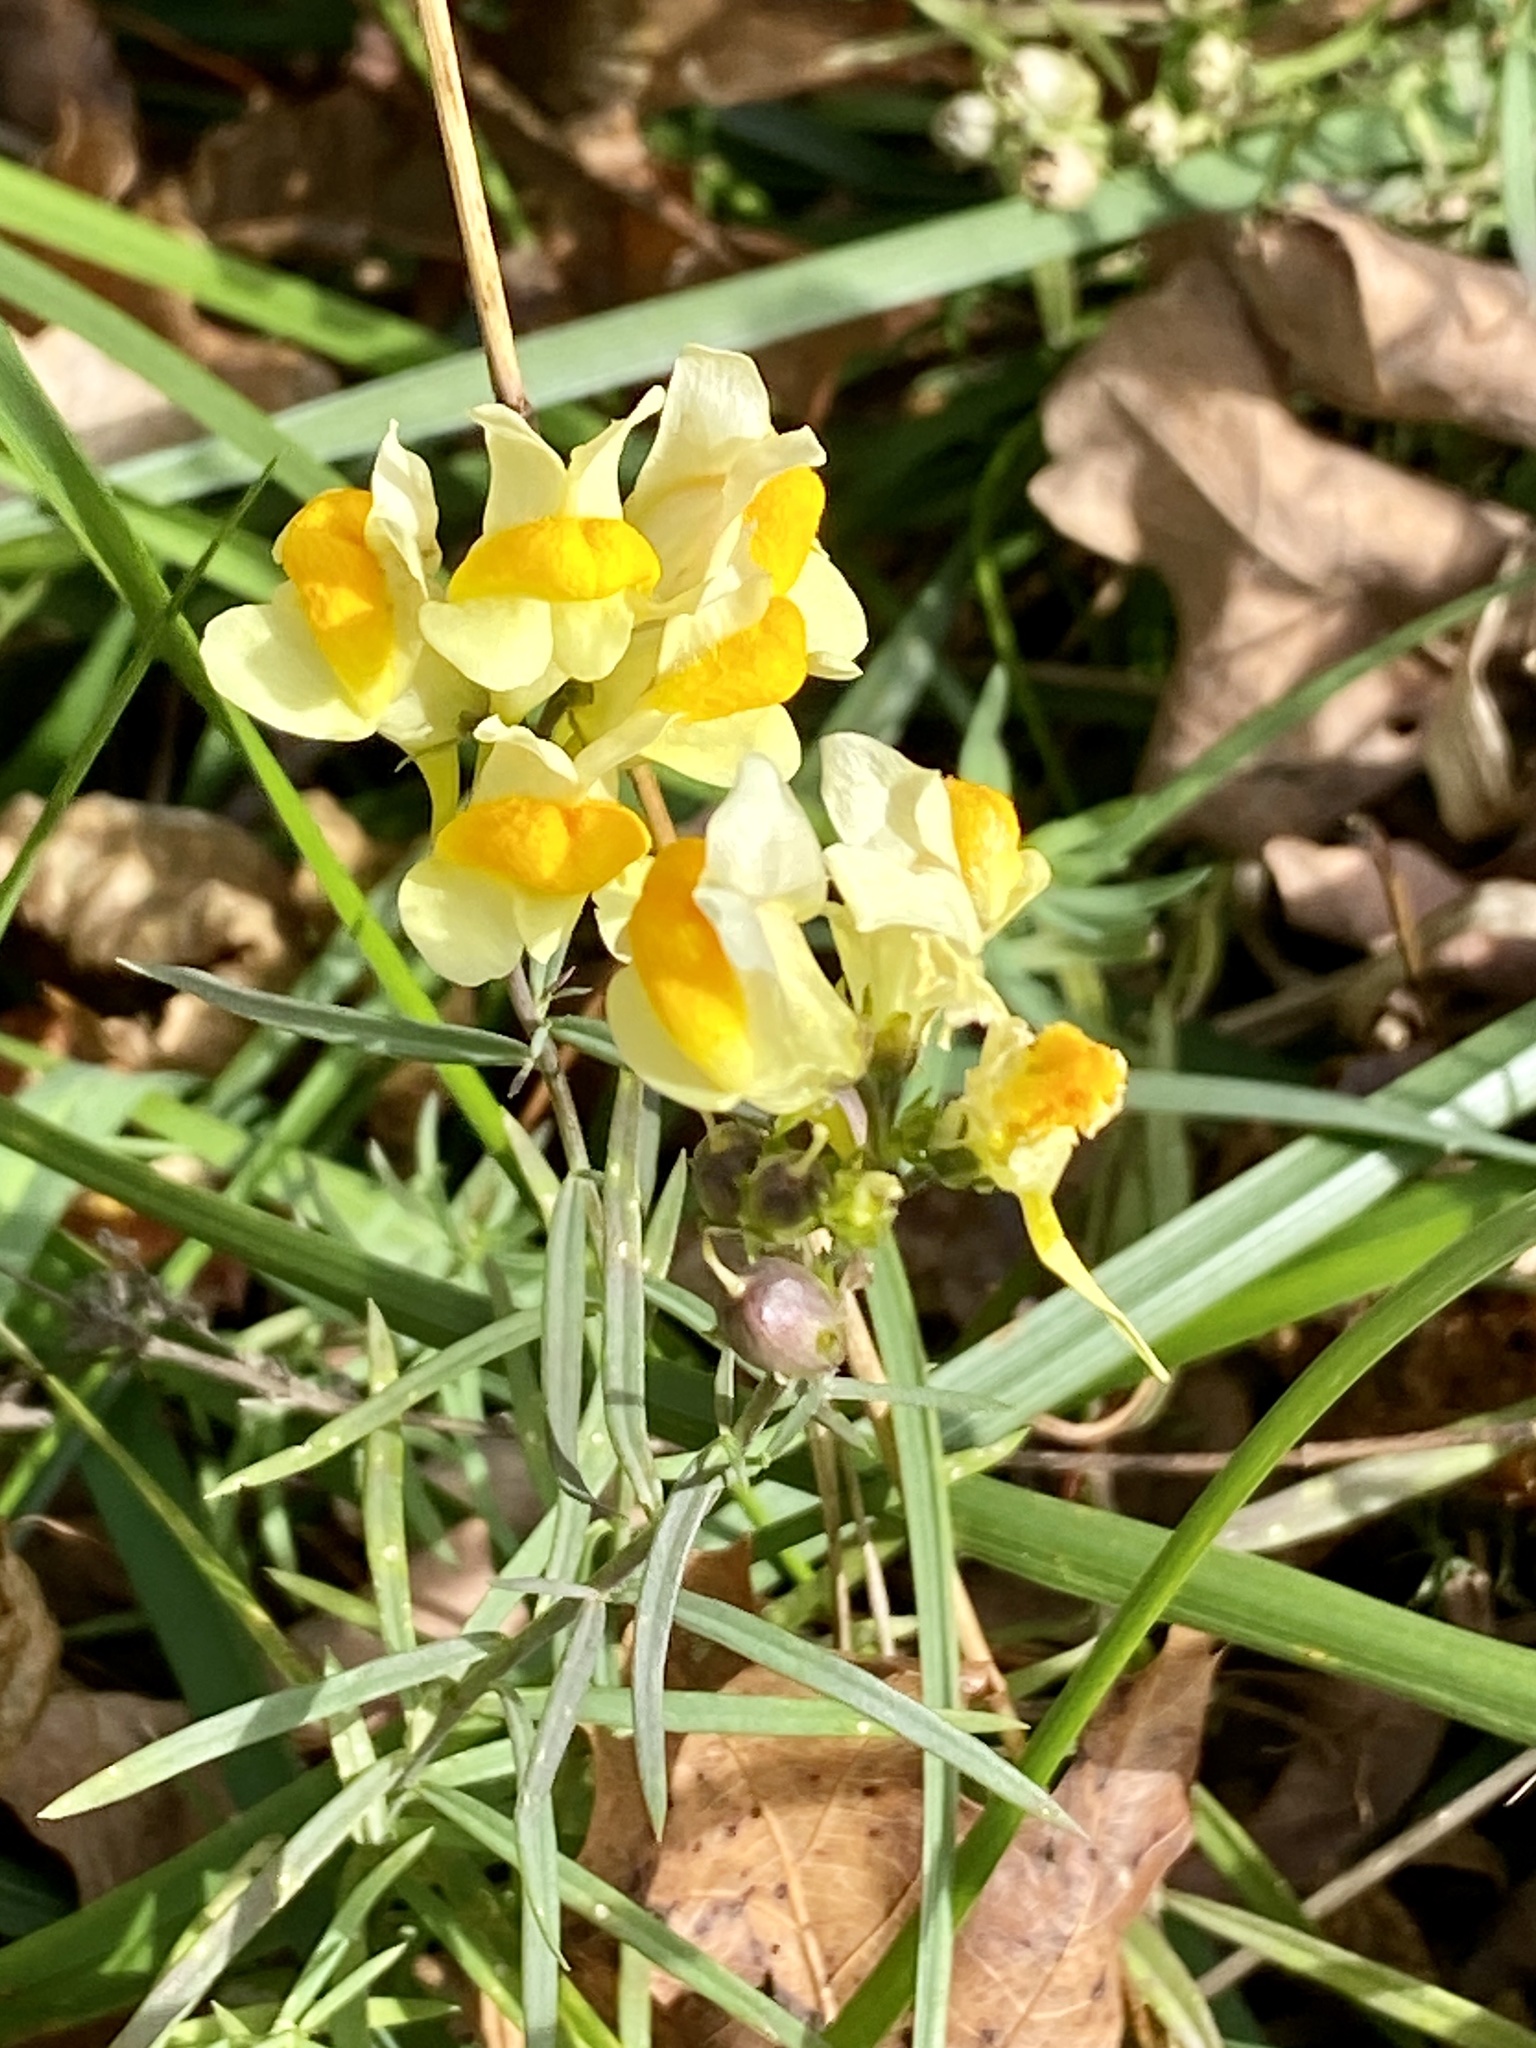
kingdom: Plantae
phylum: Tracheophyta
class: Magnoliopsida
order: Lamiales
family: Plantaginaceae
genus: Linaria
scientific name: Linaria vulgaris
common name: Butter and eggs
